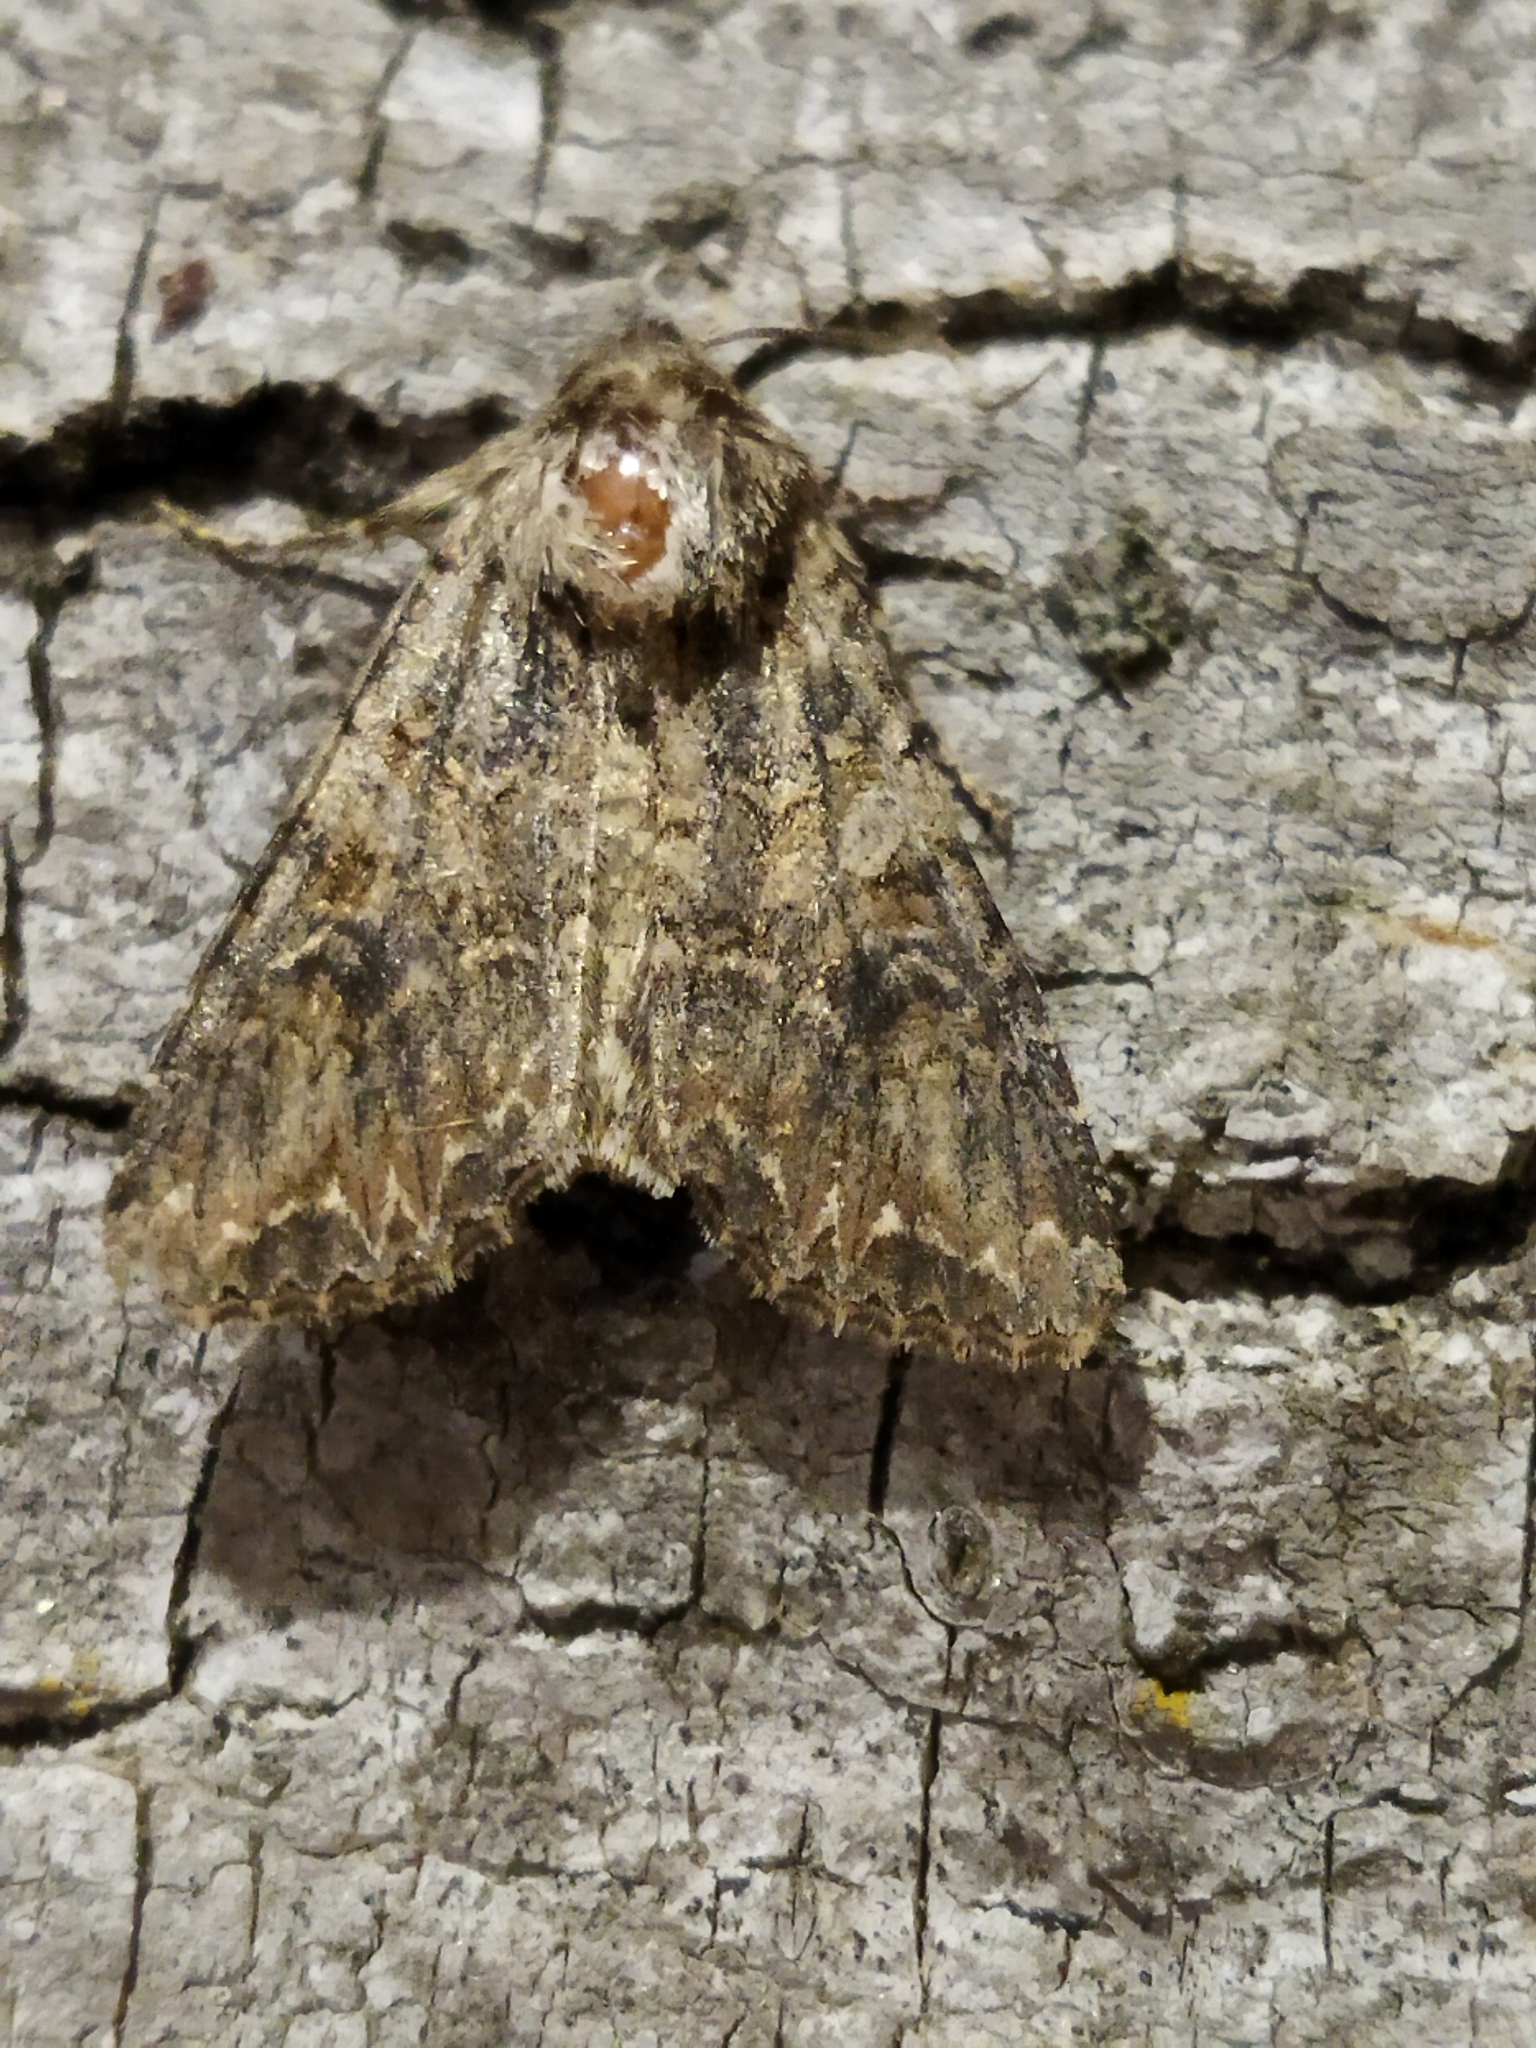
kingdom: Animalia
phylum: Arthropoda
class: Insecta
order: Lepidoptera
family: Noctuidae
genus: Anarta
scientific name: Anarta trifolii
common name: Clover cutworm moth
